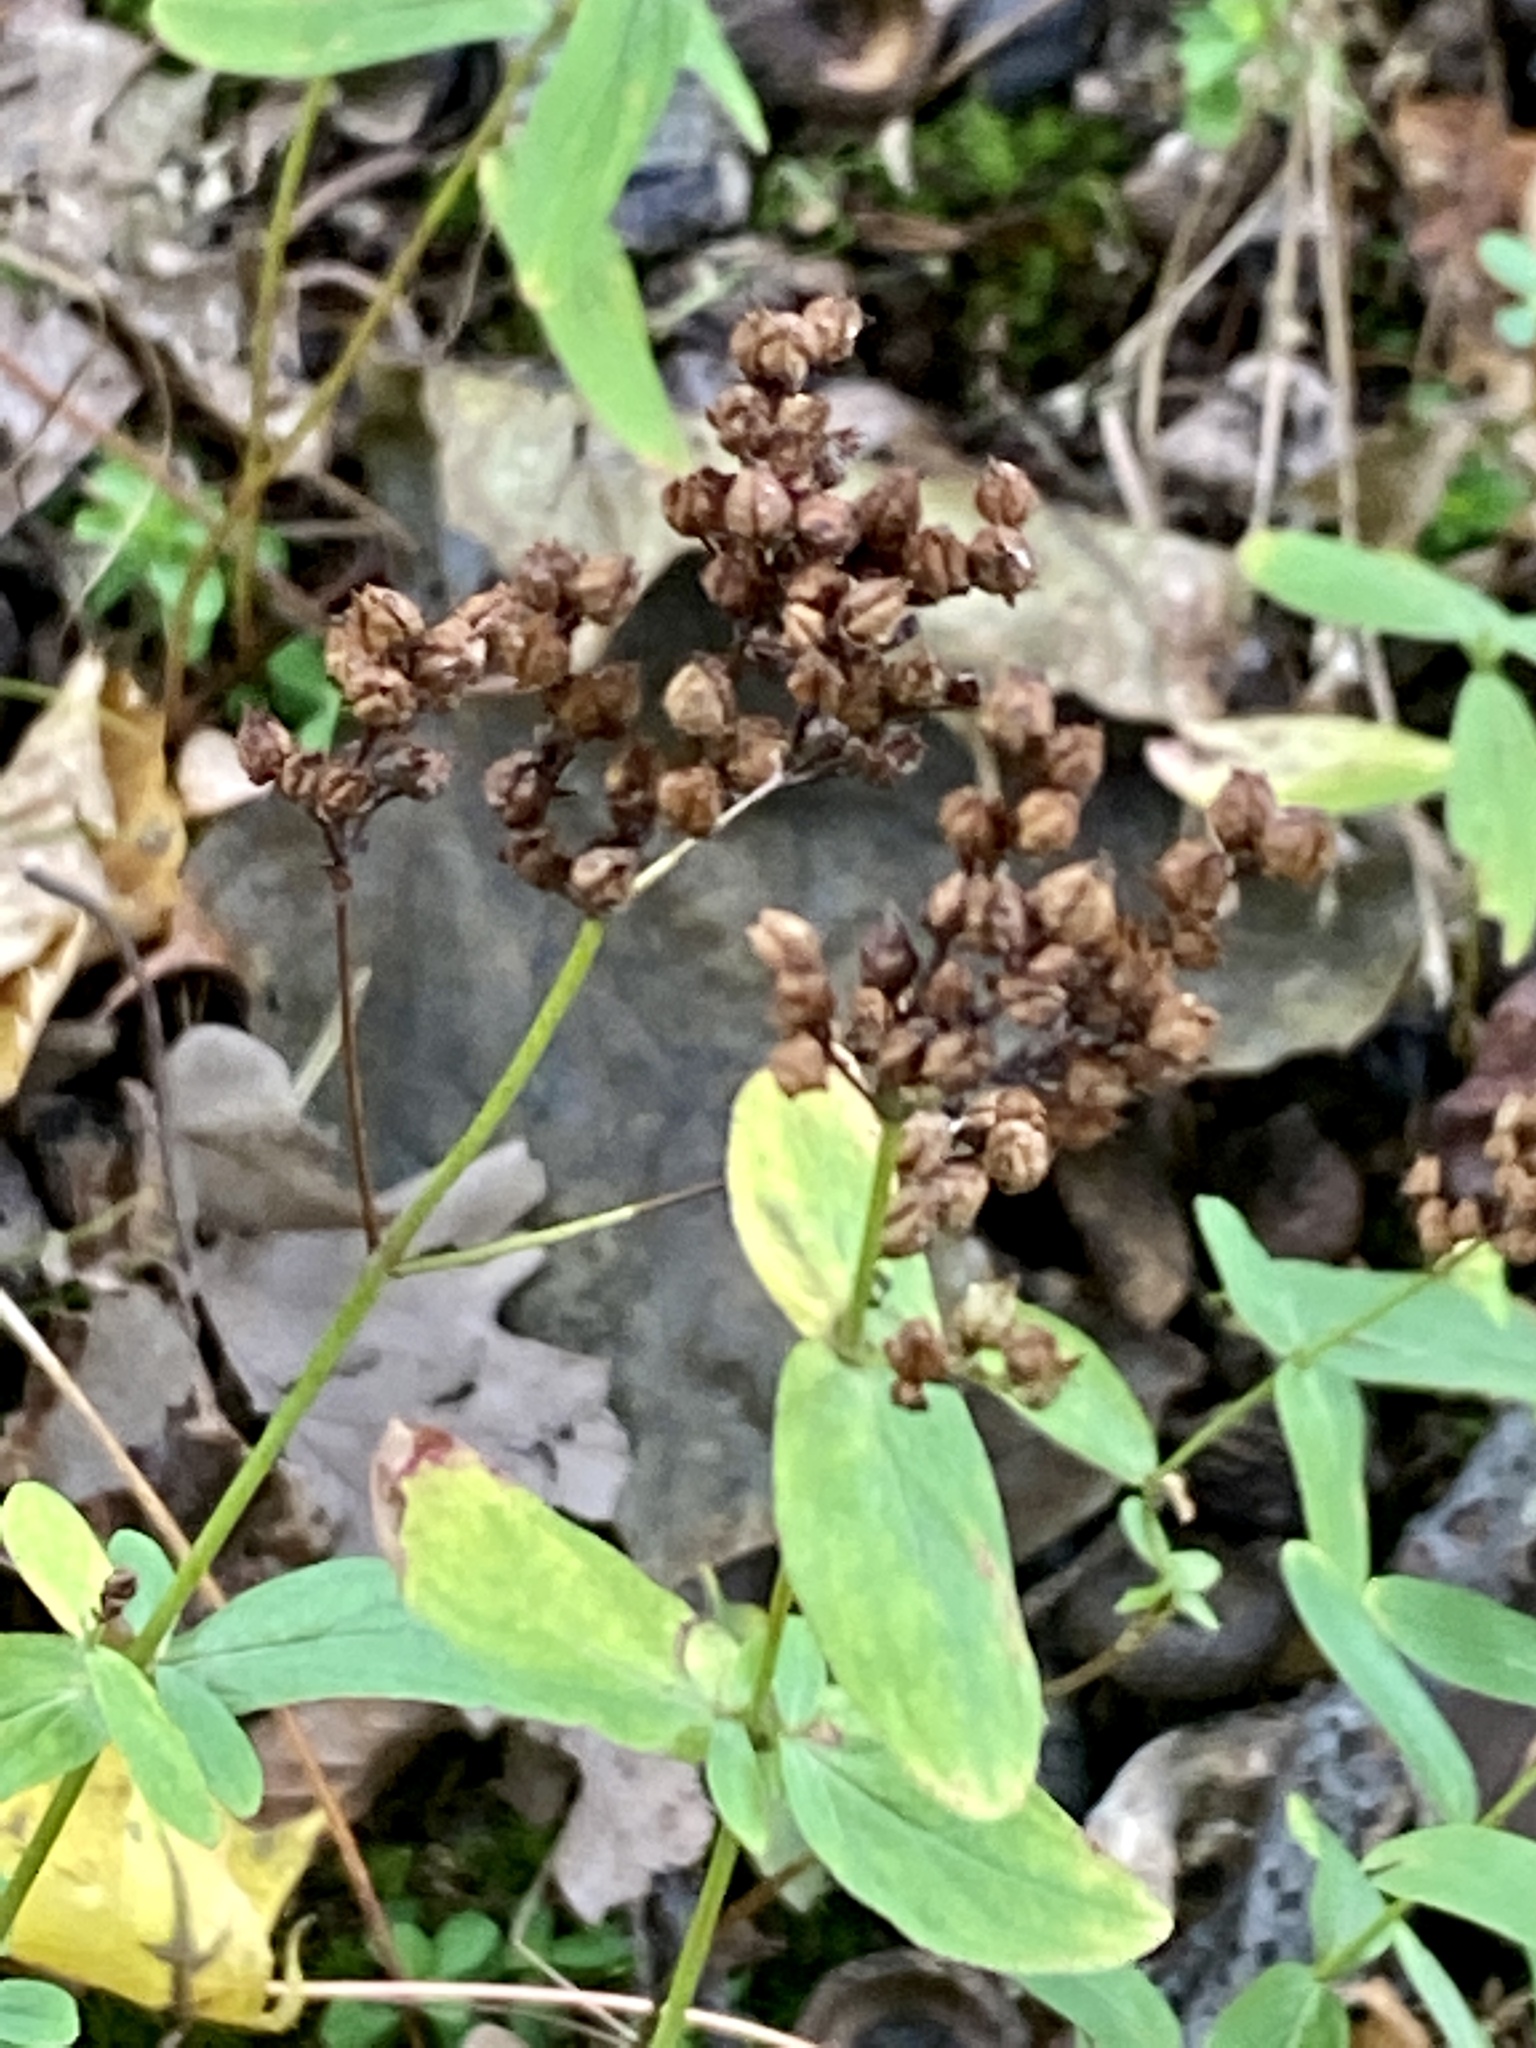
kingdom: Plantae
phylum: Tracheophyta
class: Magnoliopsida
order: Malpighiales
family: Hypericaceae
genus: Hypericum
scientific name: Hypericum punctatum
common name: Spotted st. john's-wort
